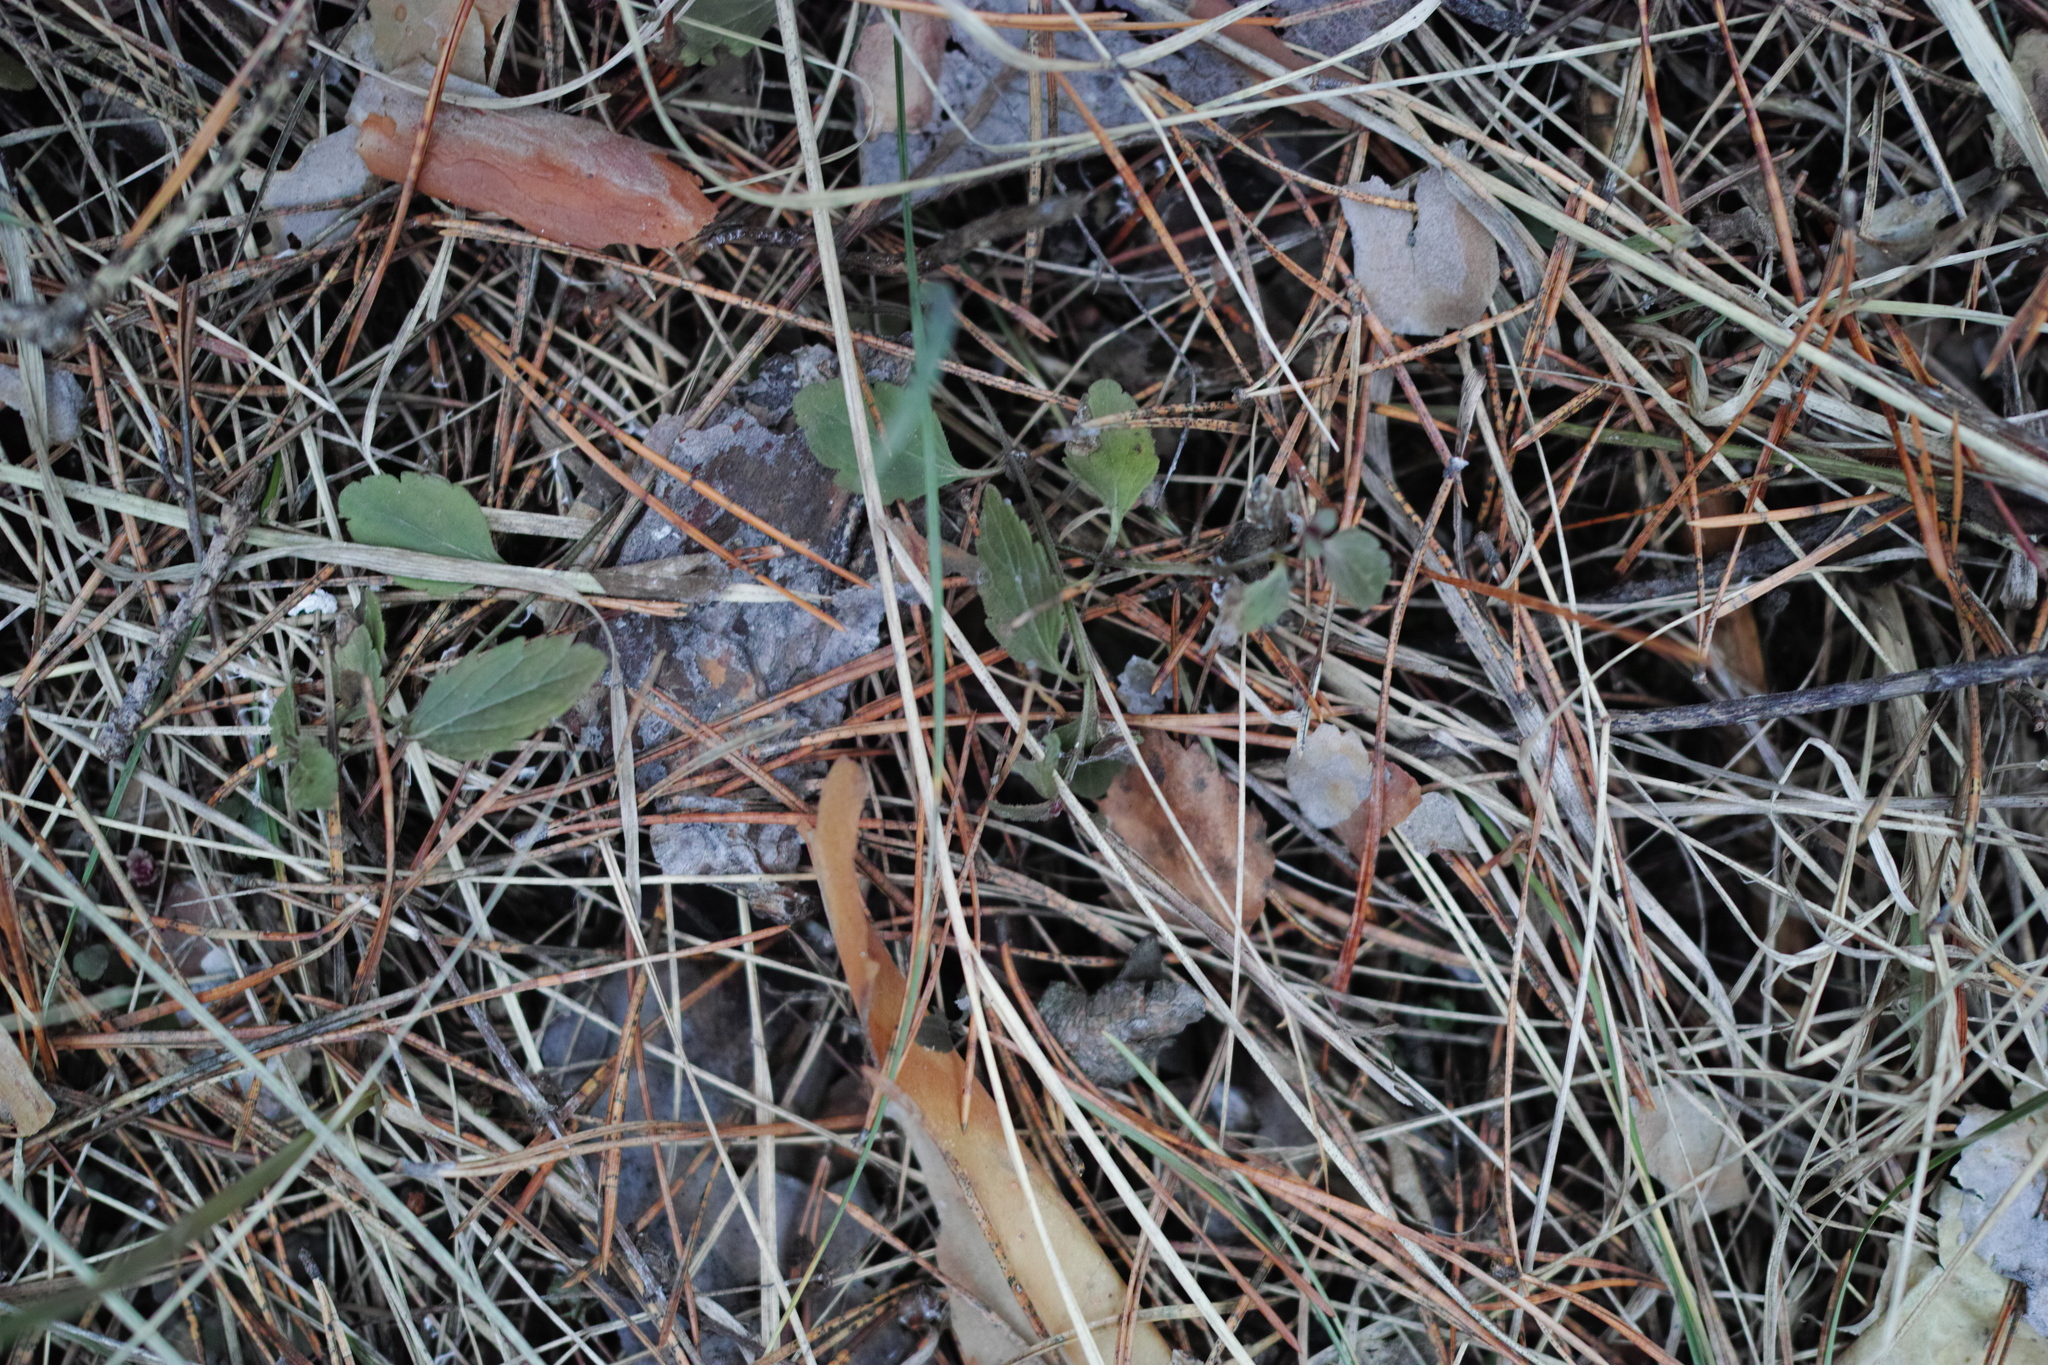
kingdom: Plantae
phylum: Tracheophyta
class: Magnoliopsida
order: Lamiales
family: Plantaginaceae
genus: Veronica
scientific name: Veronica chamaedrys
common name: Germander speedwell
